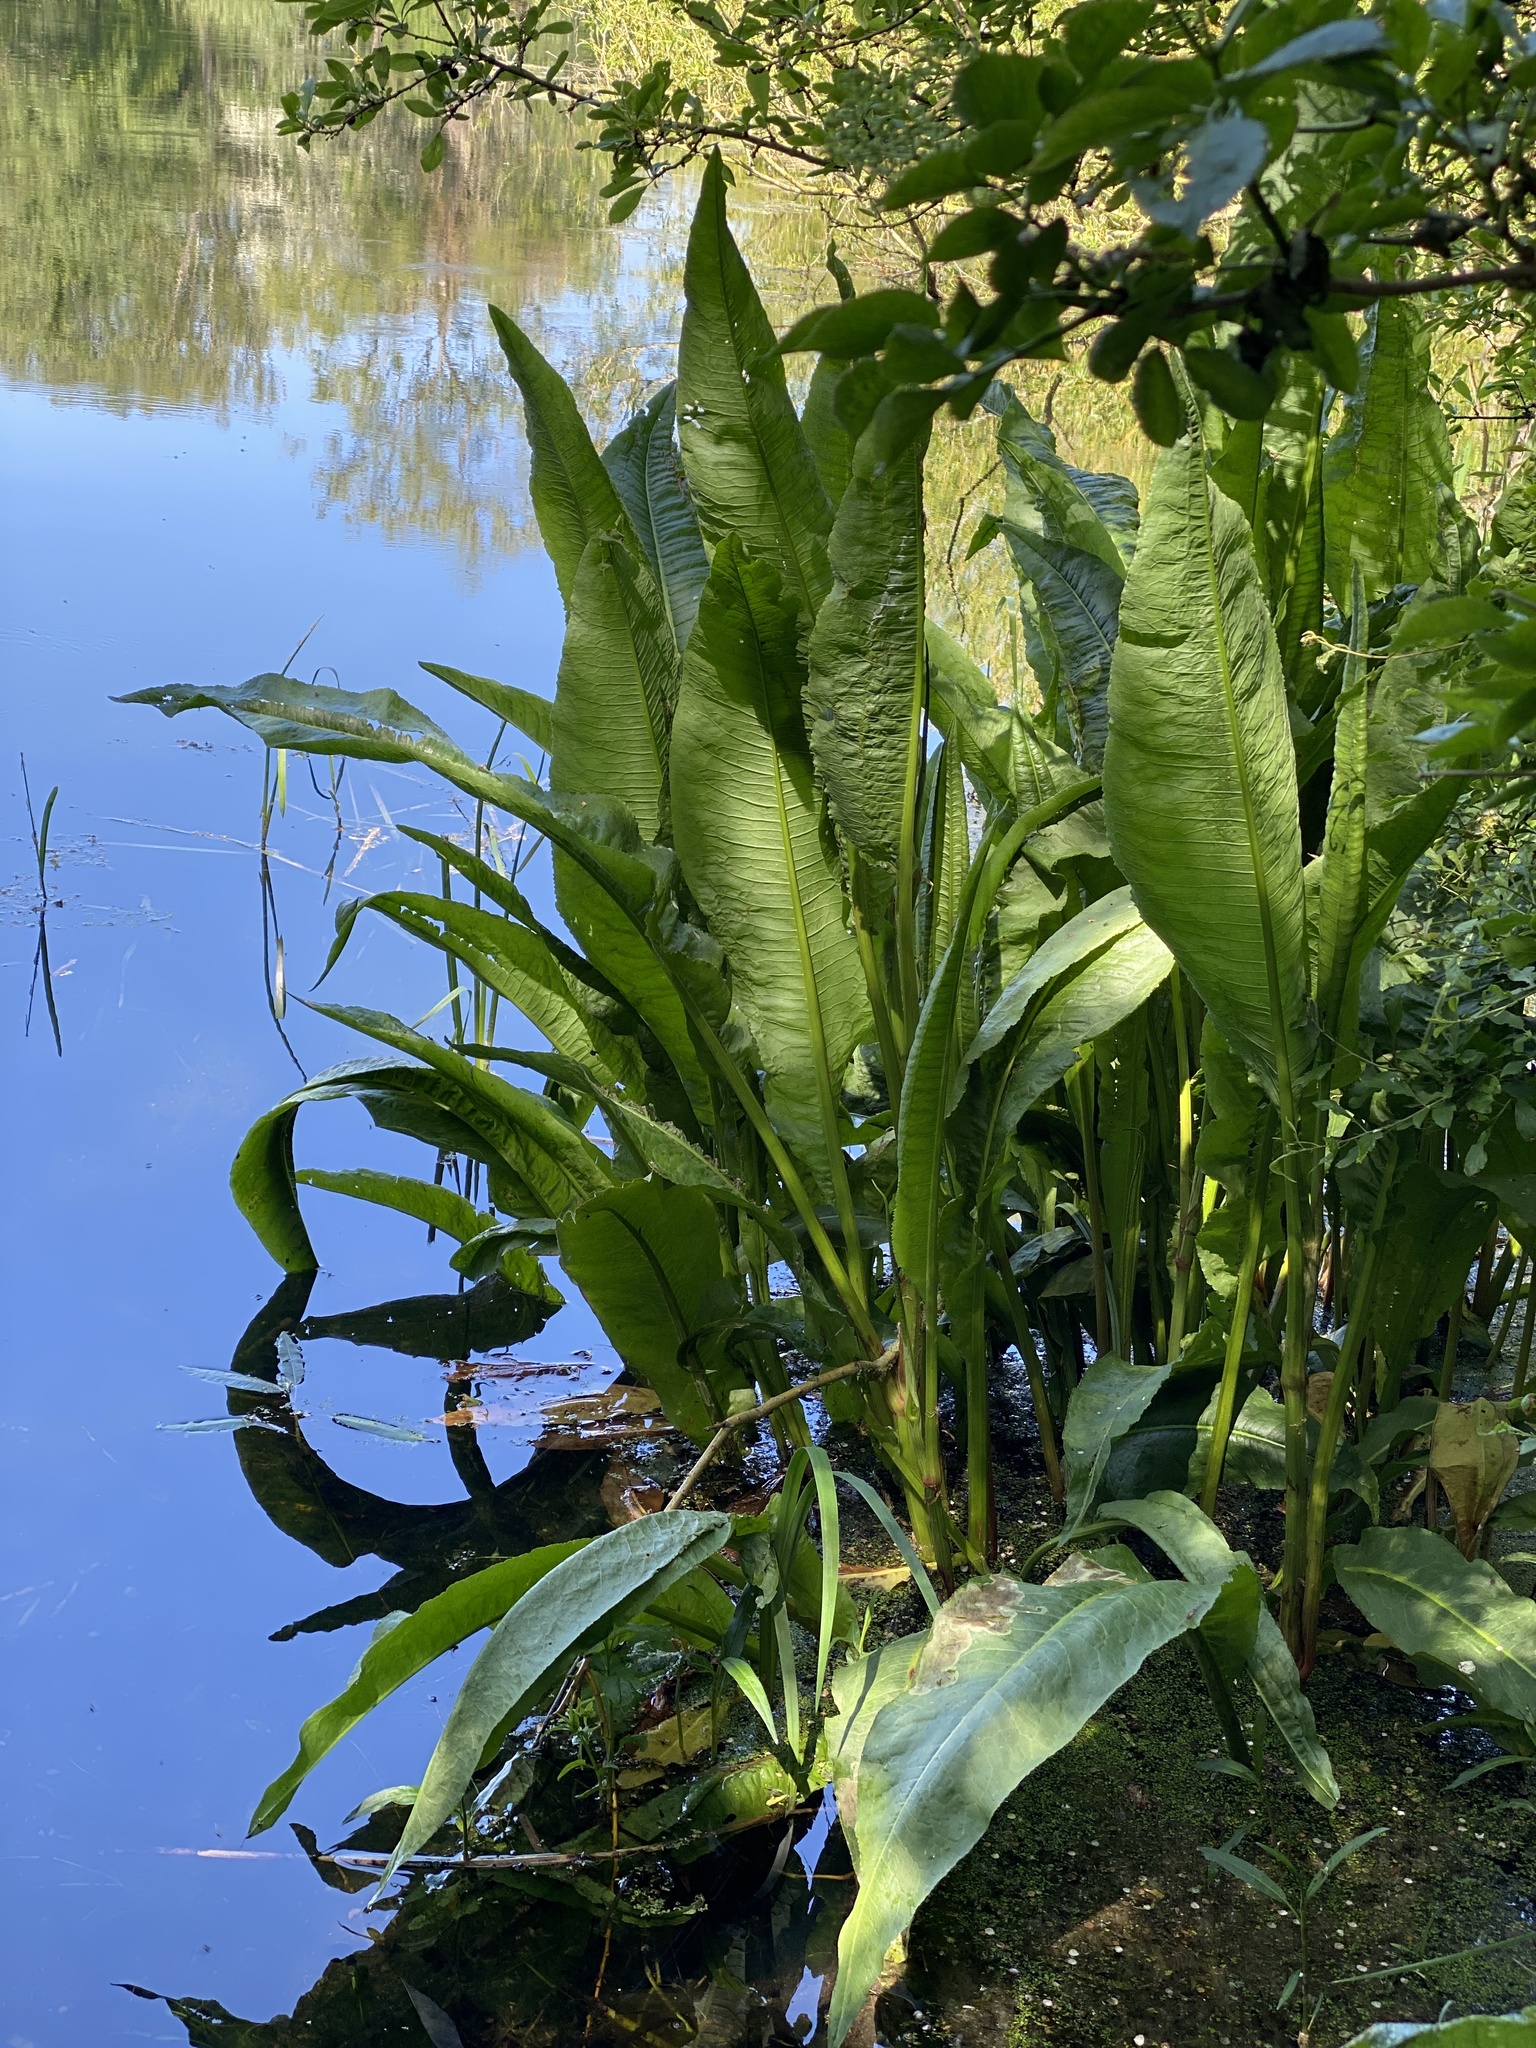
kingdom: Plantae
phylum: Tracheophyta
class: Magnoliopsida
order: Caryophyllales
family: Polygonaceae
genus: Rumex
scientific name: Rumex hydrolapathum
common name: Water dock
